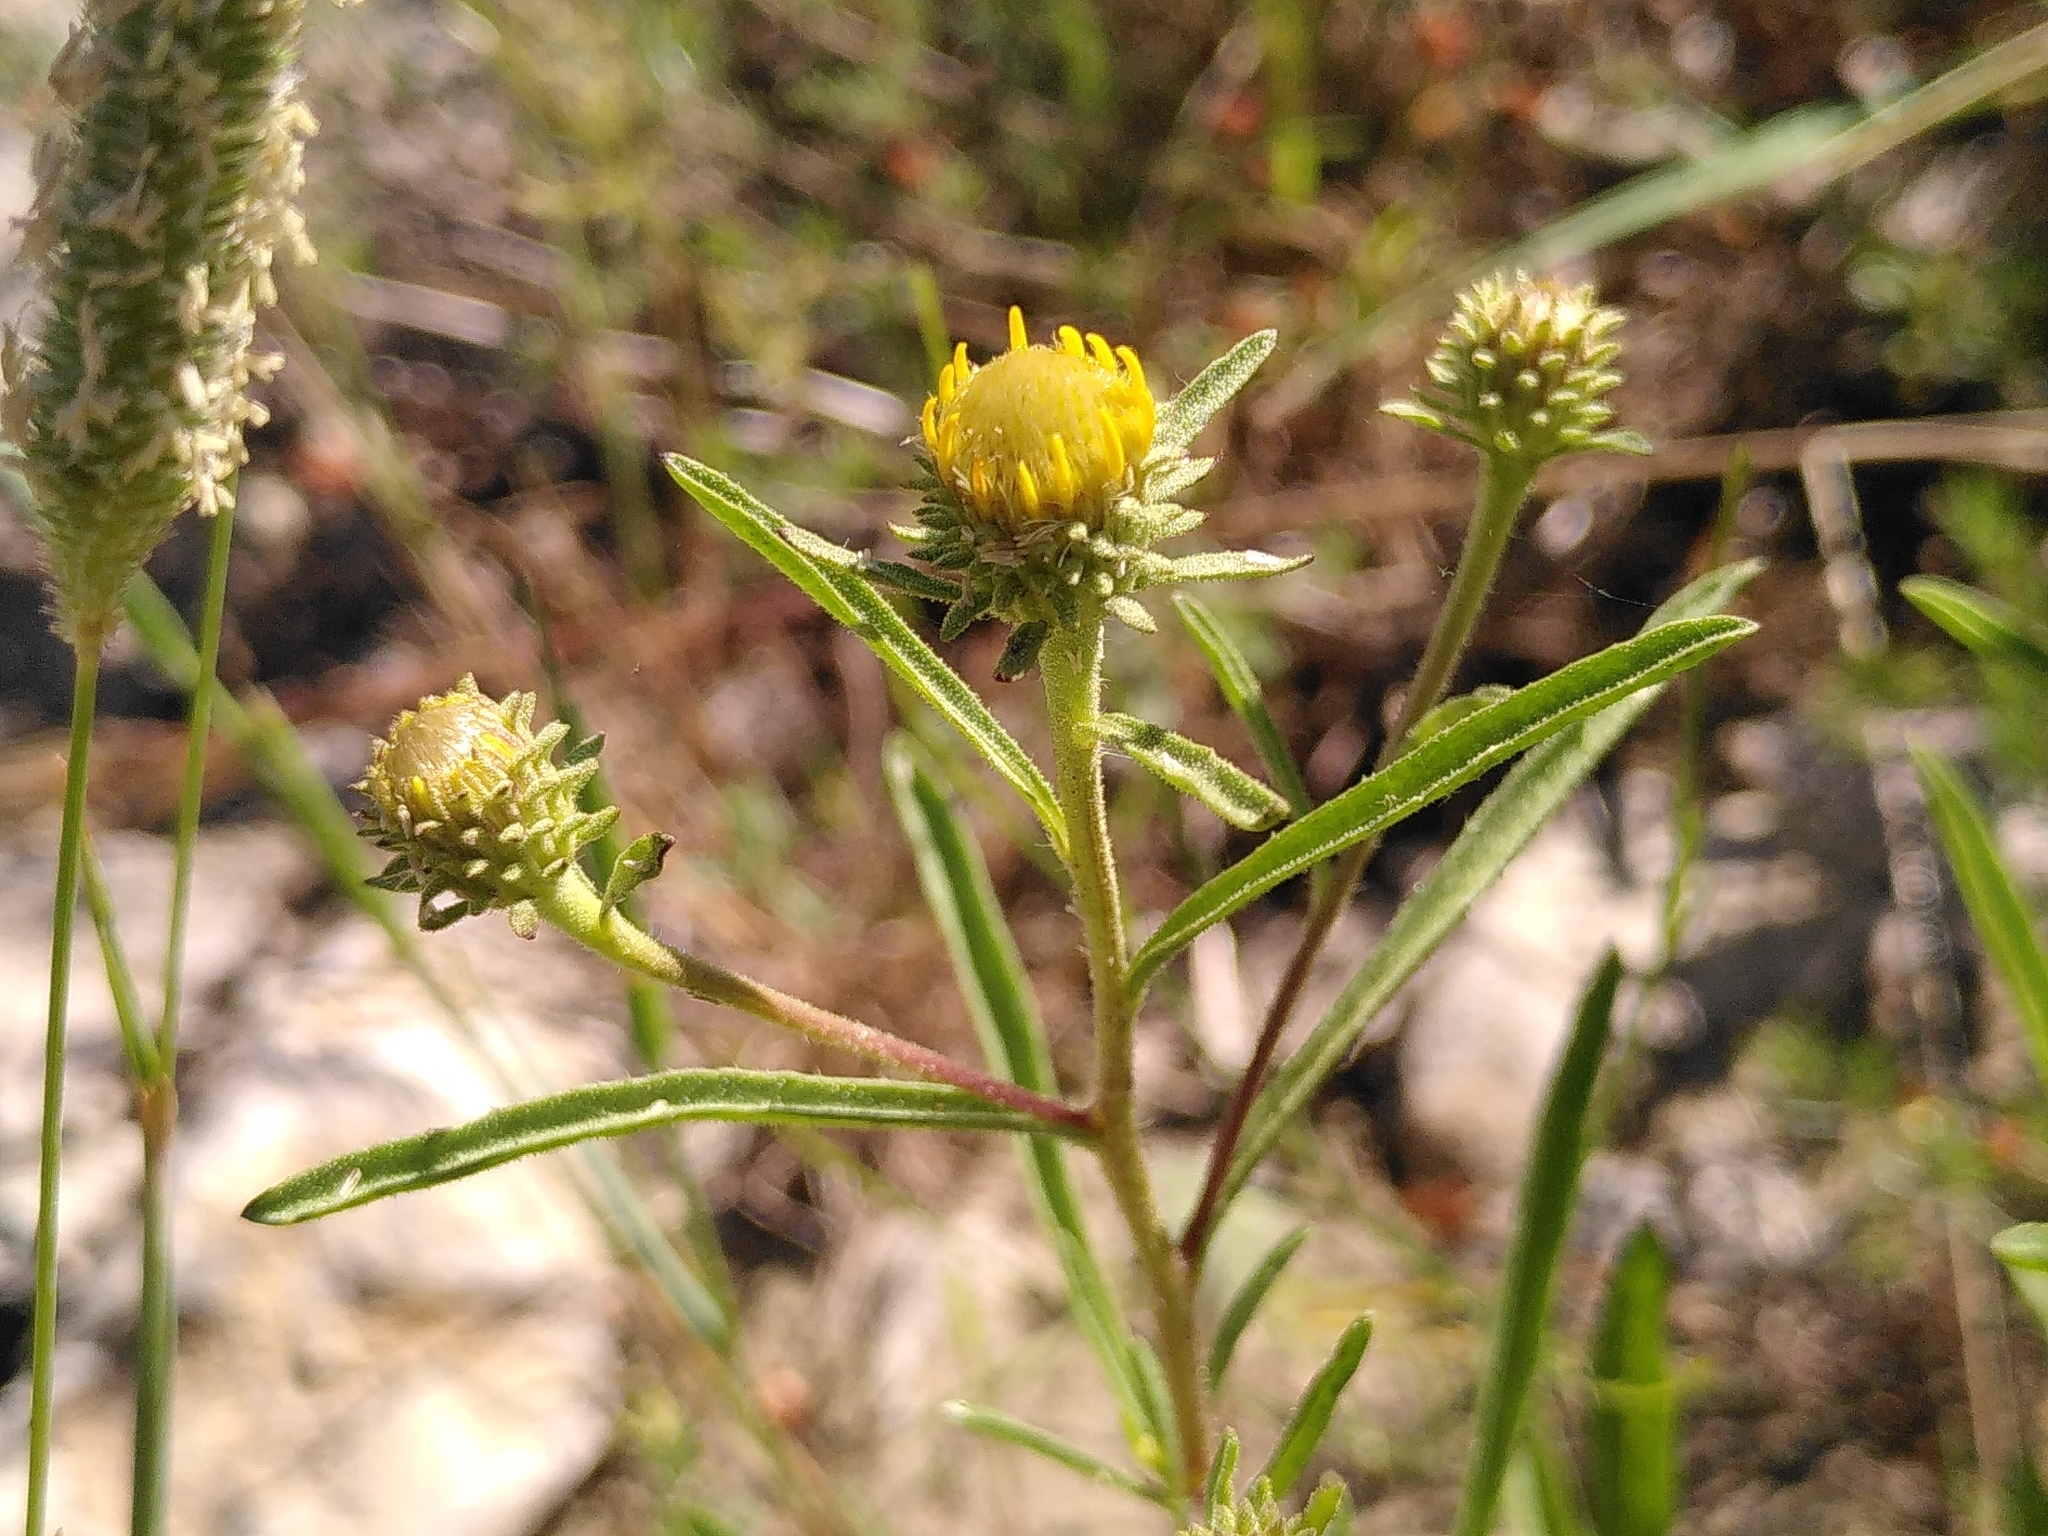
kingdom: Plantae
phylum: Tracheophyta
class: Magnoliopsida
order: Asterales
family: Asteraceae
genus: Jasonia
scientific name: Jasonia tuberosa
